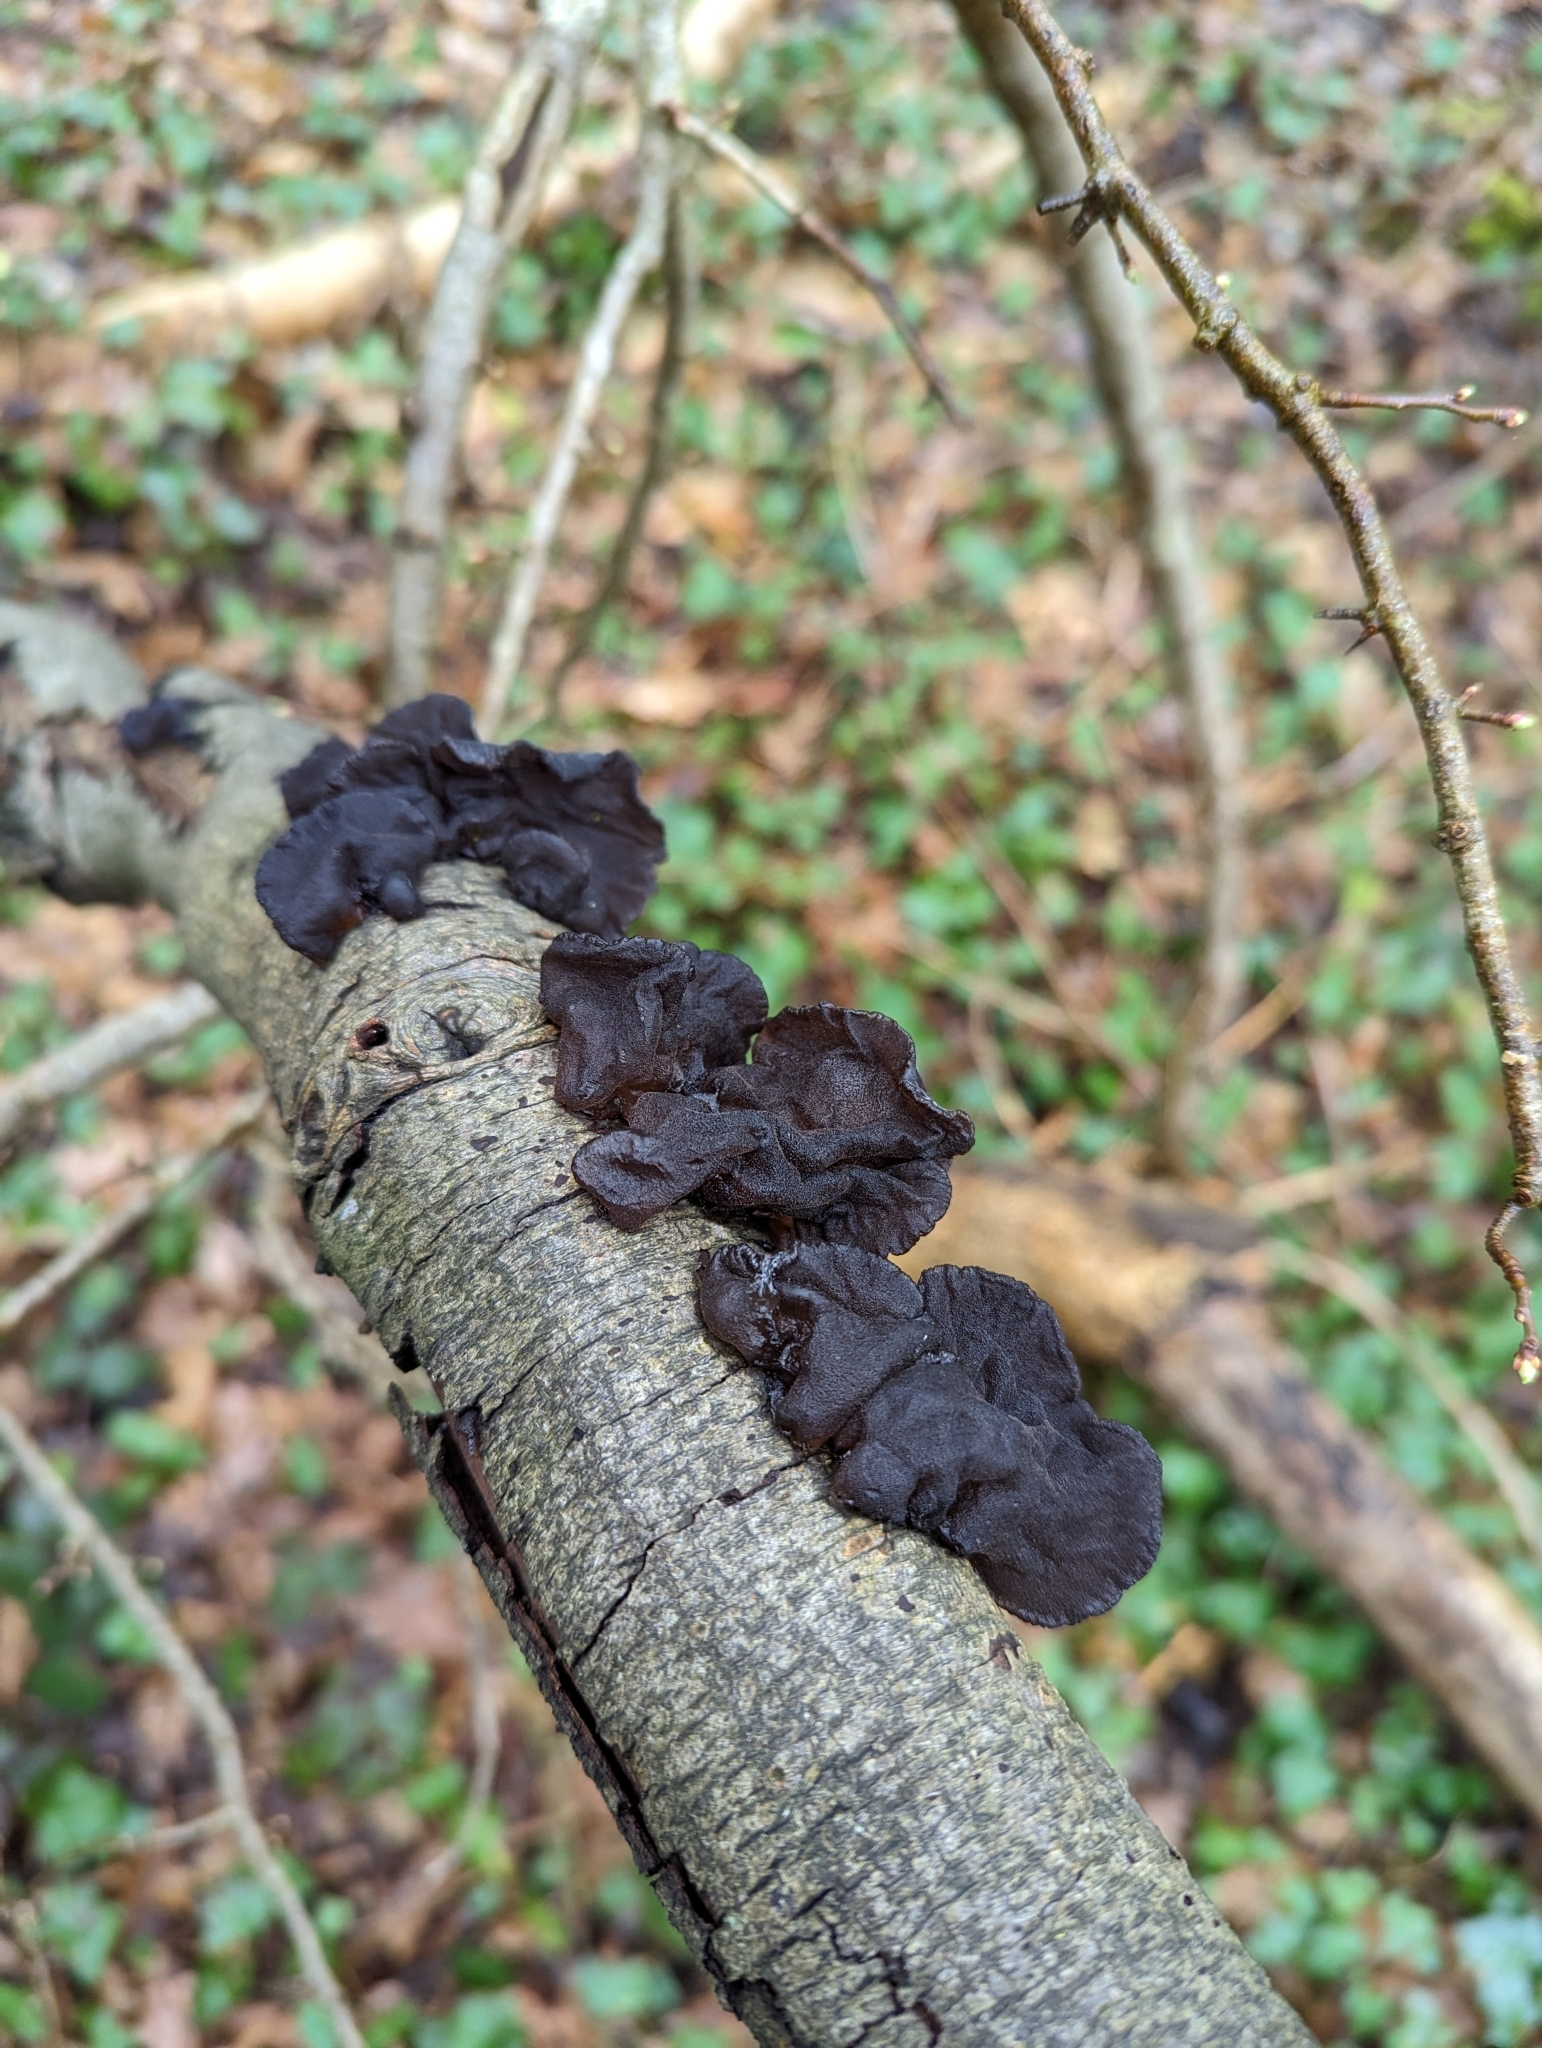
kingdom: Fungi
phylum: Basidiomycota
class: Agaricomycetes
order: Auriculariales
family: Auriculariaceae
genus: Exidia
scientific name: Exidia glandulosa
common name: Witches' butter
